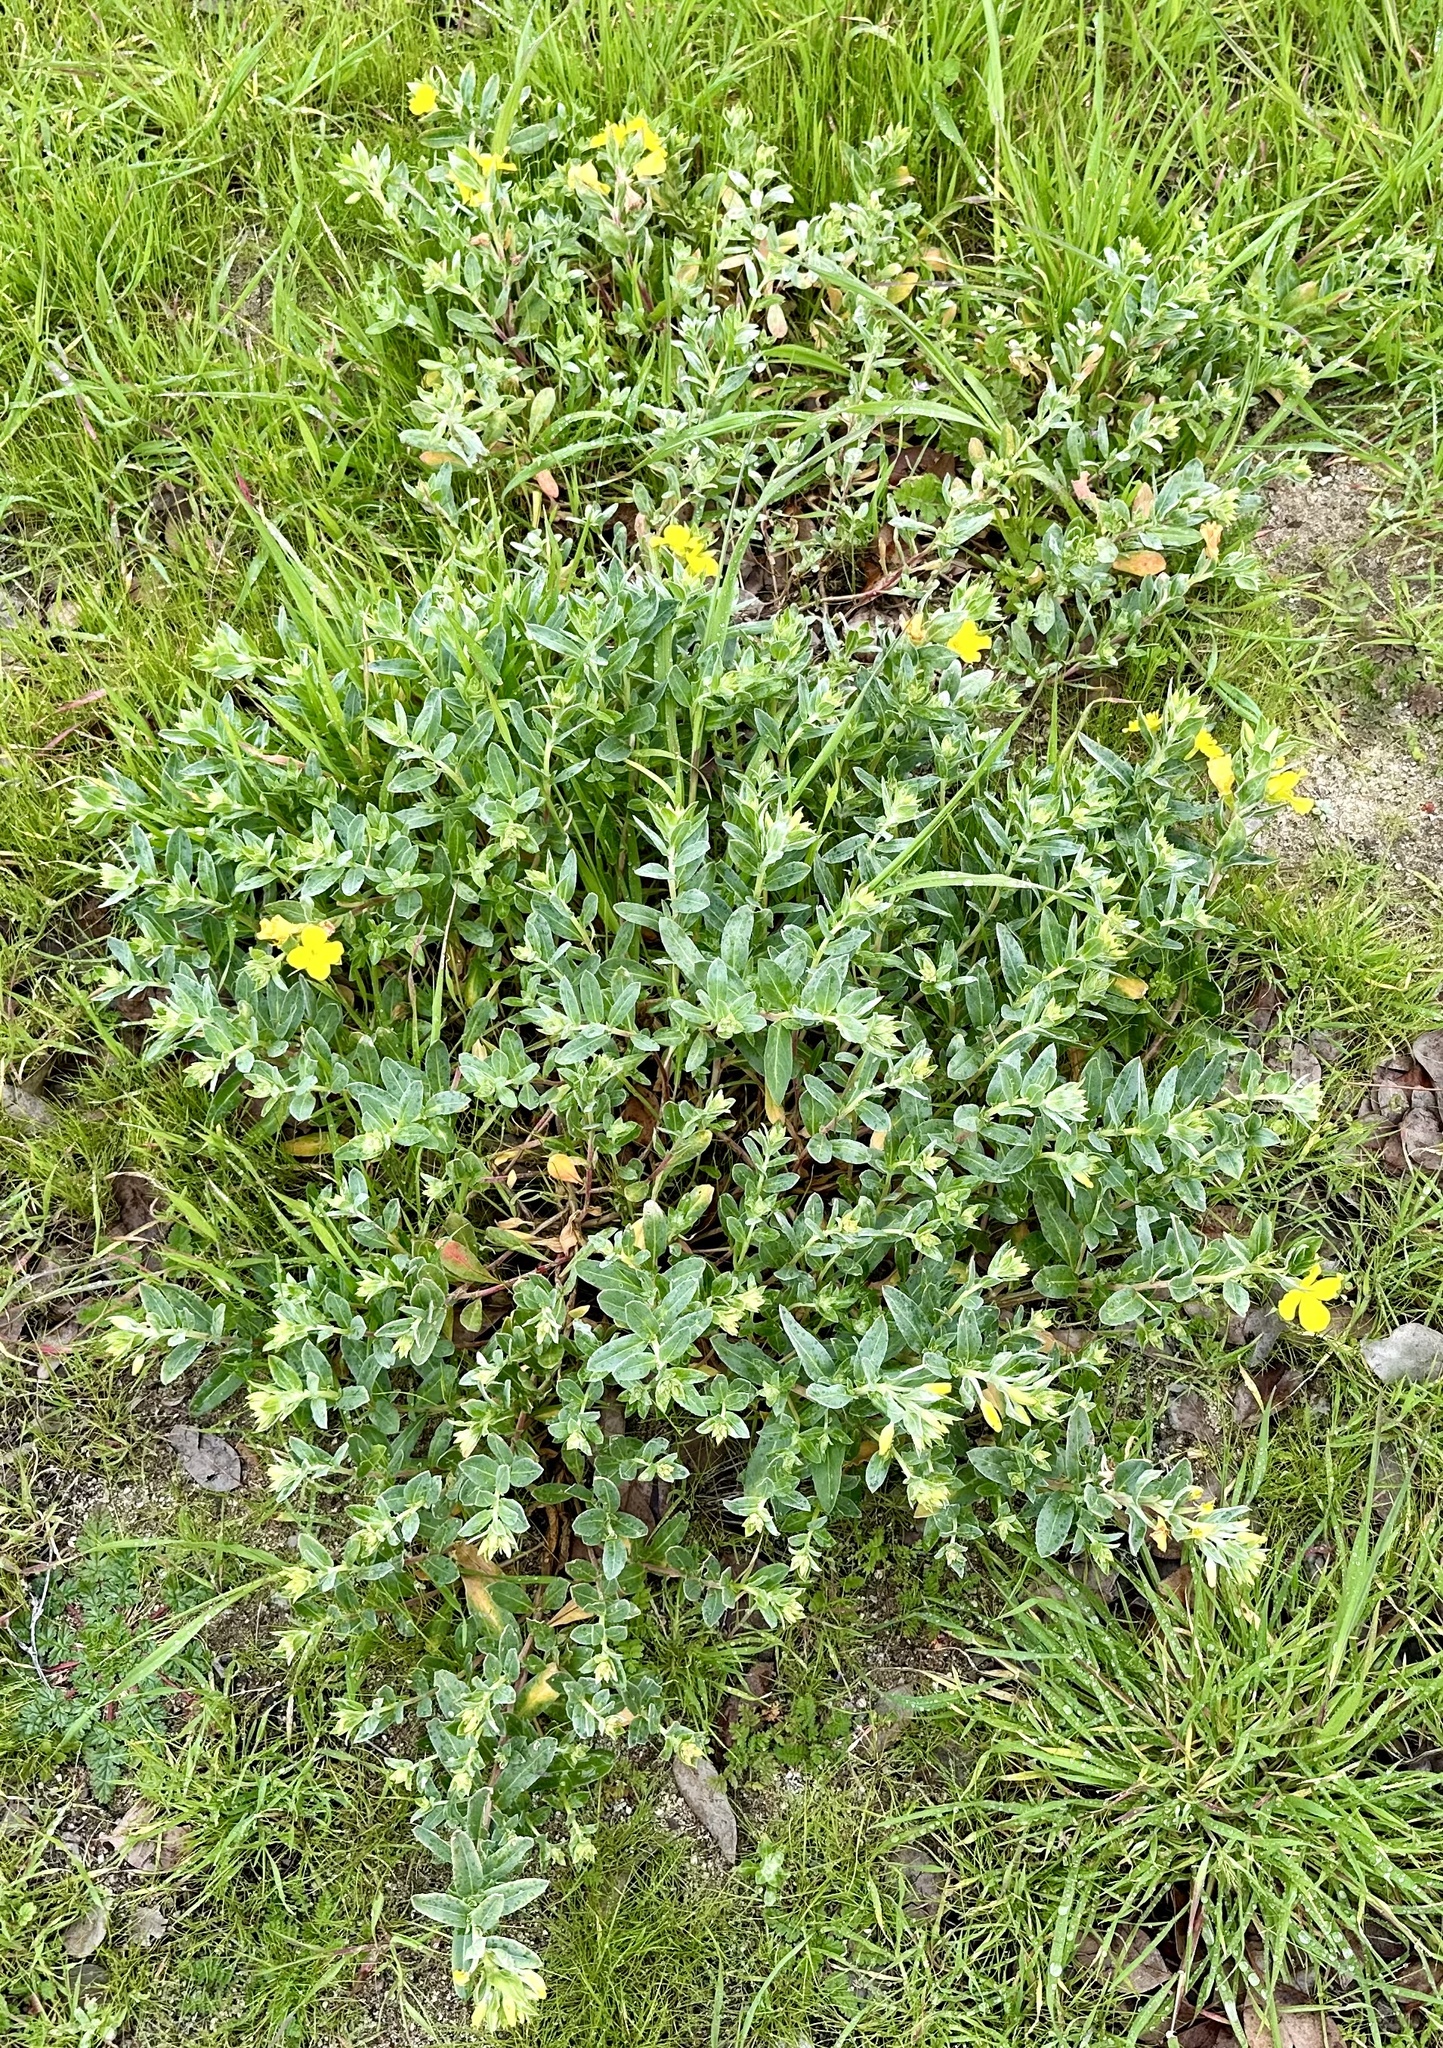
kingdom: Plantae
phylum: Tracheophyta
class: Magnoliopsida
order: Myrtales
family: Onagraceae
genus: Camissoniopsis
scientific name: Camissoniopsis cheiranthifolia
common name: Beach suncup
